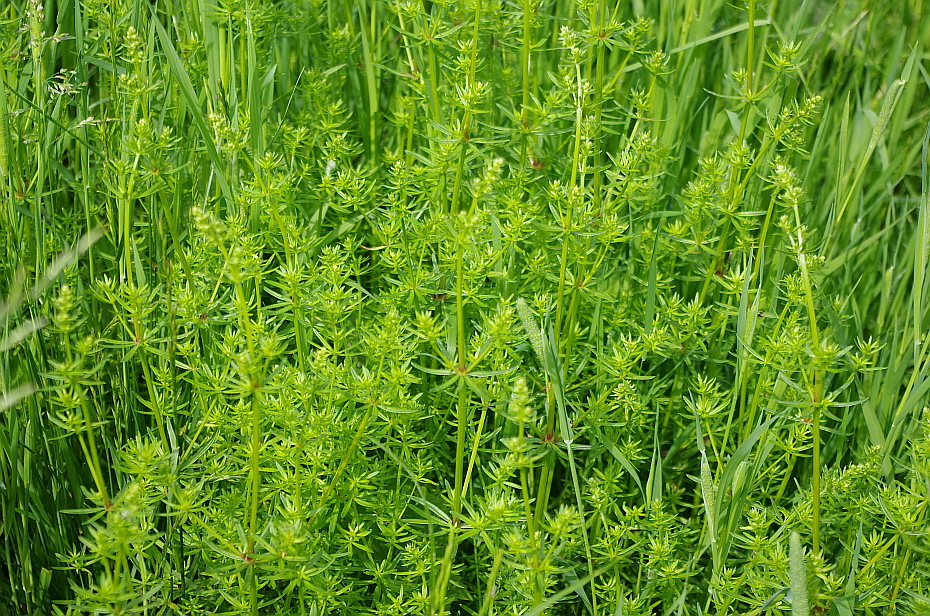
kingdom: Plantae
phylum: Tracheophyta
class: Magnoliopsida
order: Gentianales
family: Rubiaceae
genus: Galium
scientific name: Galium mollugo
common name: Hedge bedstraw
